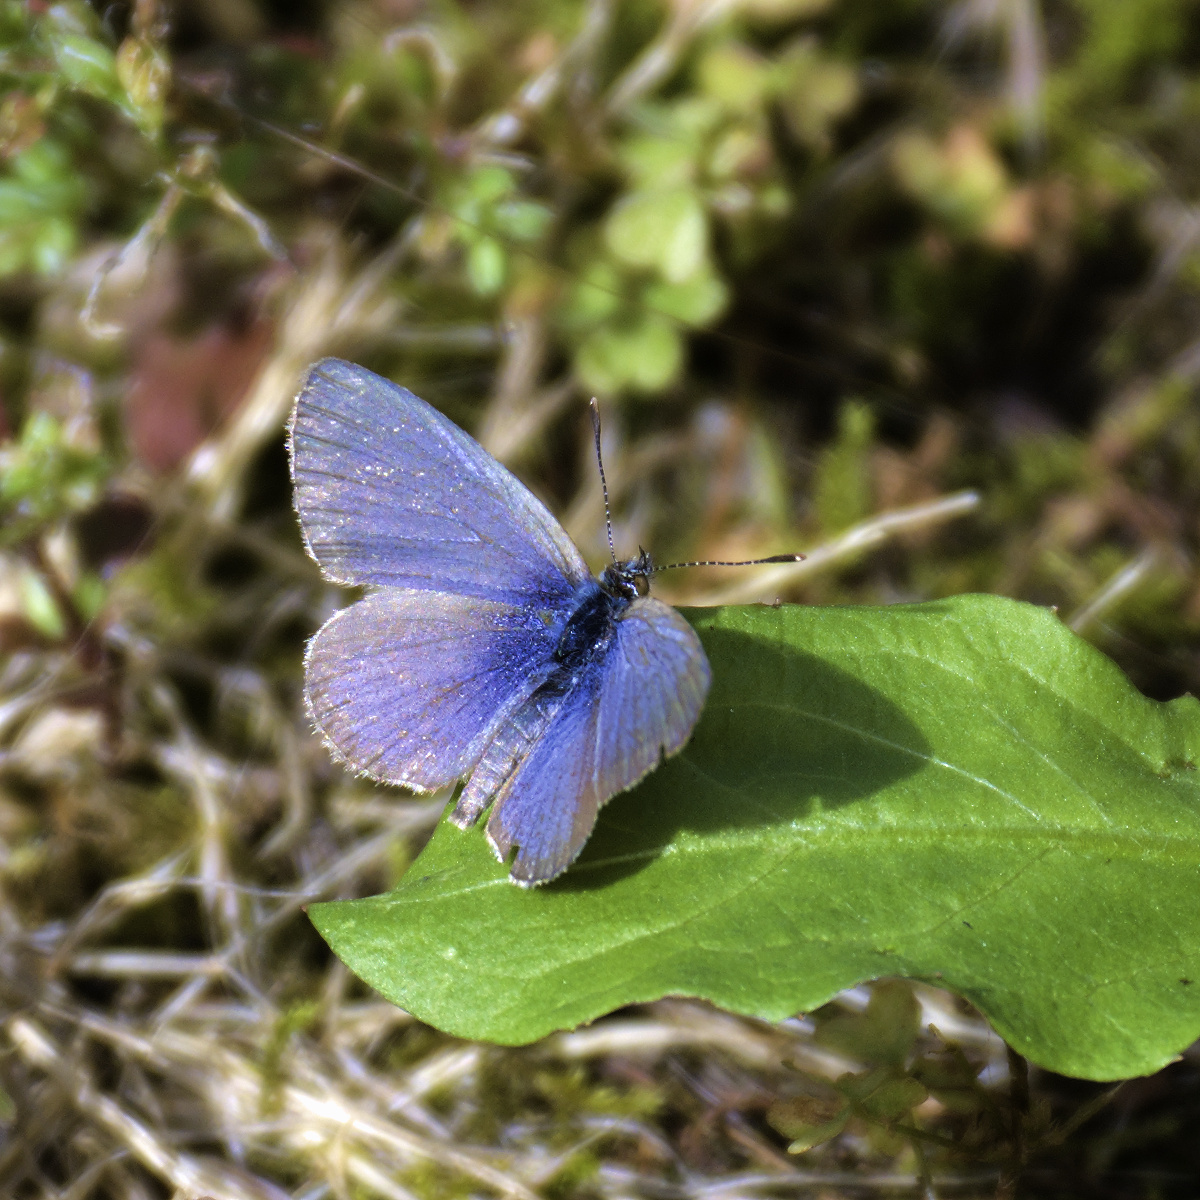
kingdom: Animalia
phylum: Arthropoda
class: Insecta
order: Lepidoptera
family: Lycaenidae
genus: Zizina
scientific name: Zizina labradus
